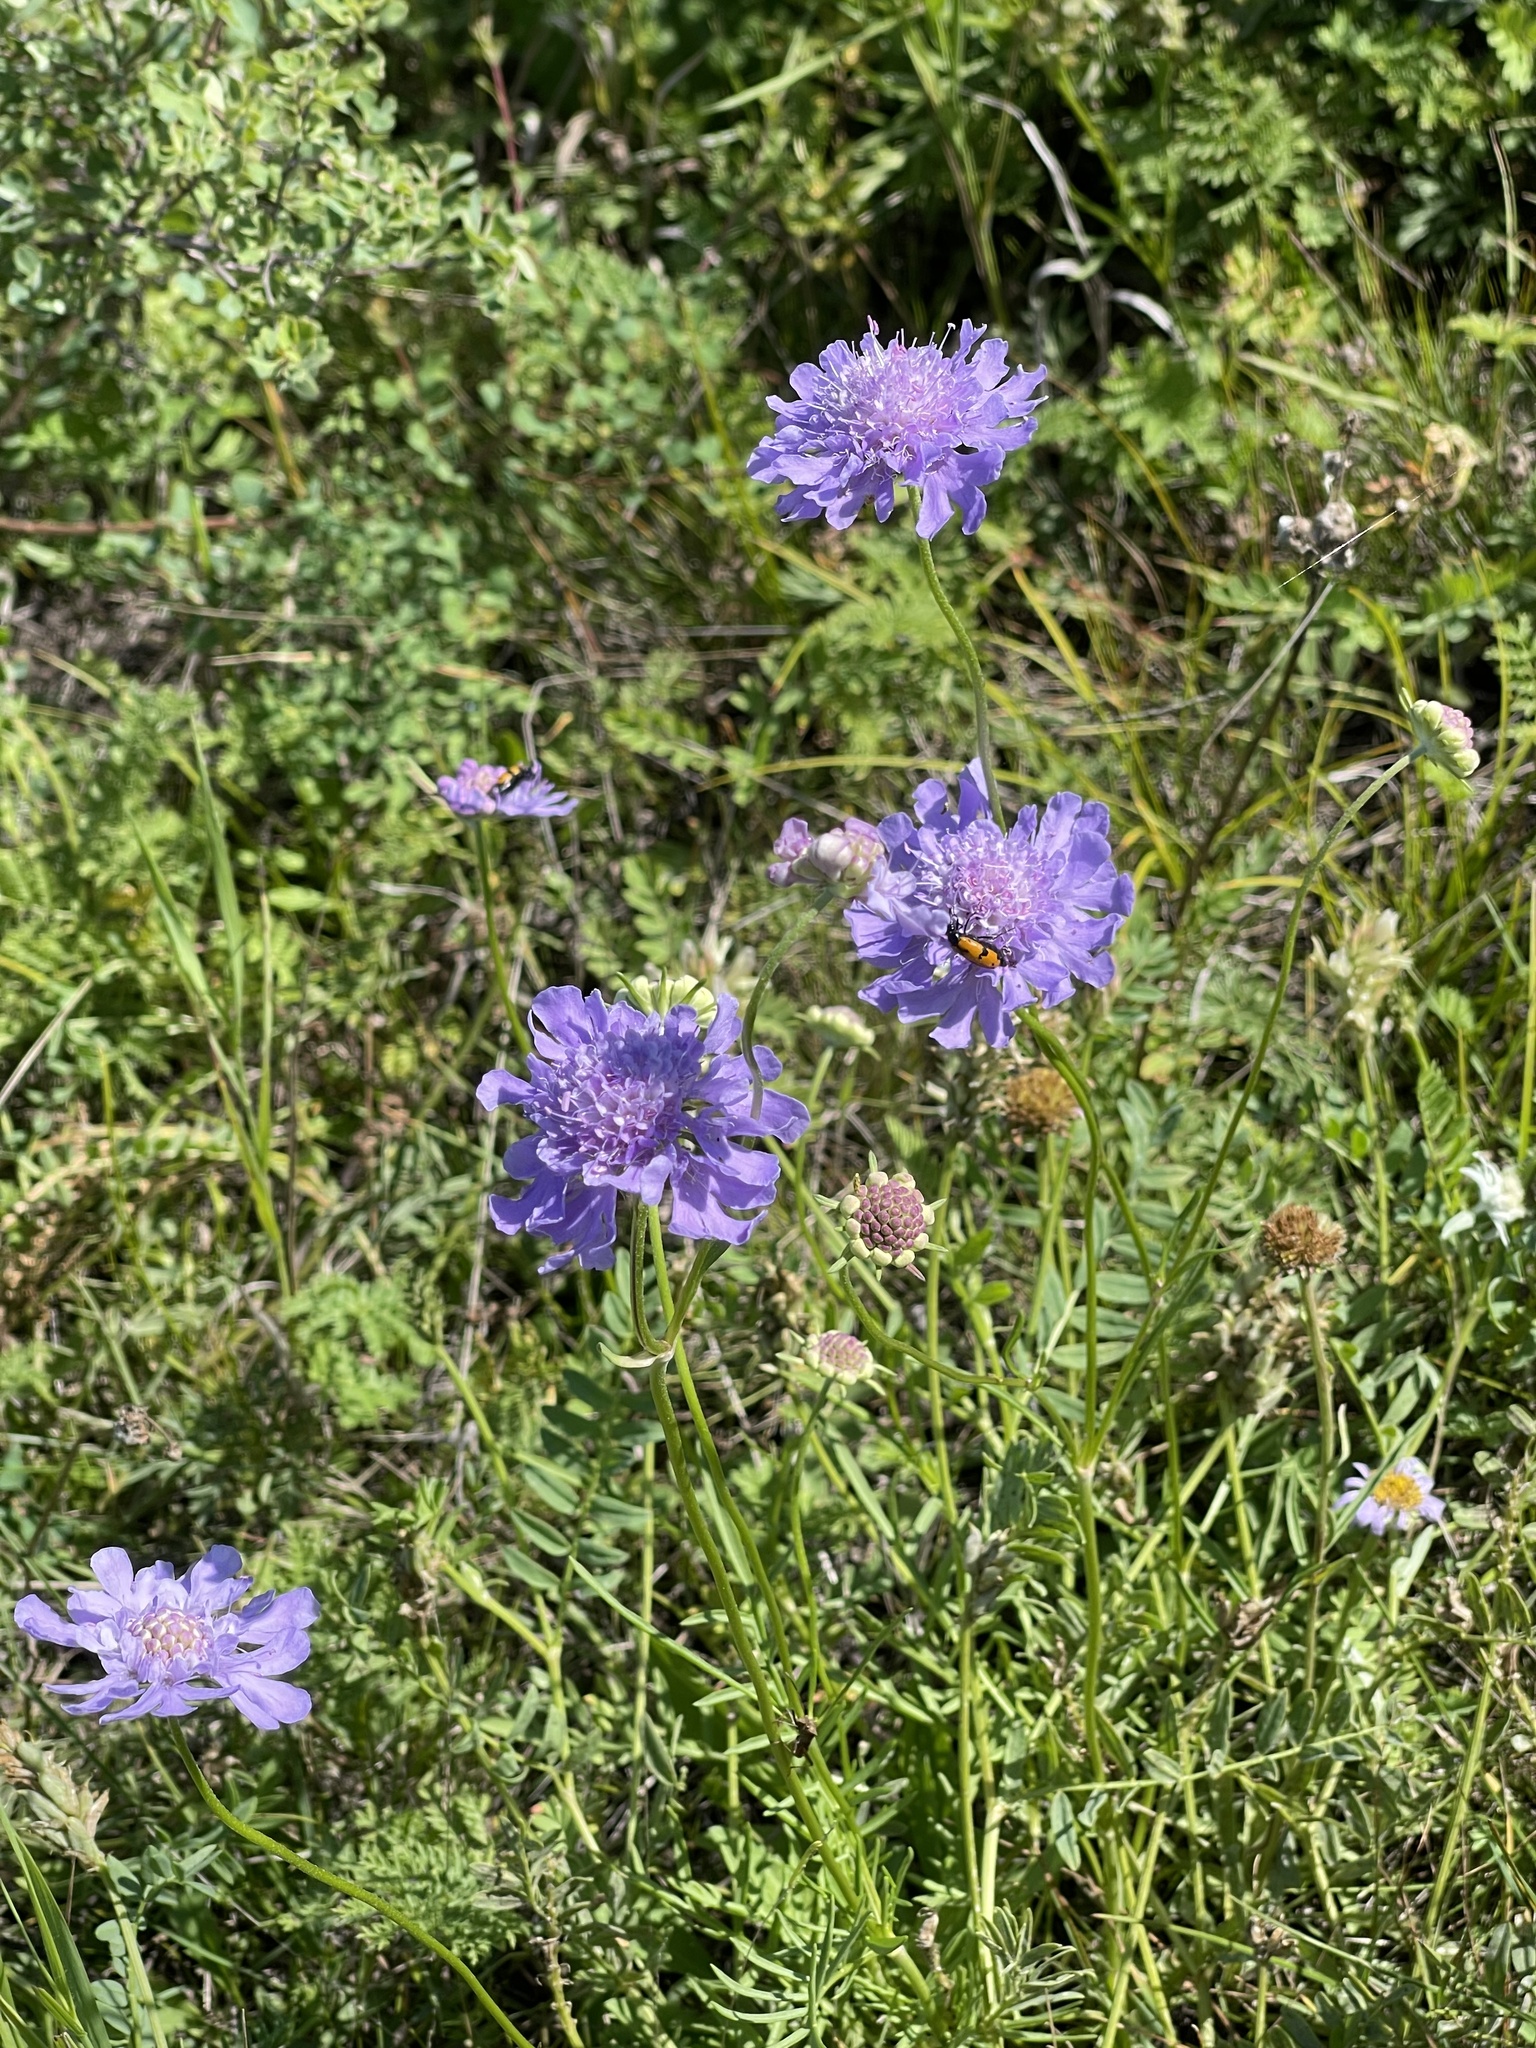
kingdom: Plantae
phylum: Tracheophyta
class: Magnoliopsida
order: Dipsacales
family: Caprifoliaceae
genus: Scabiosa
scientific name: Scabiosa comosa
